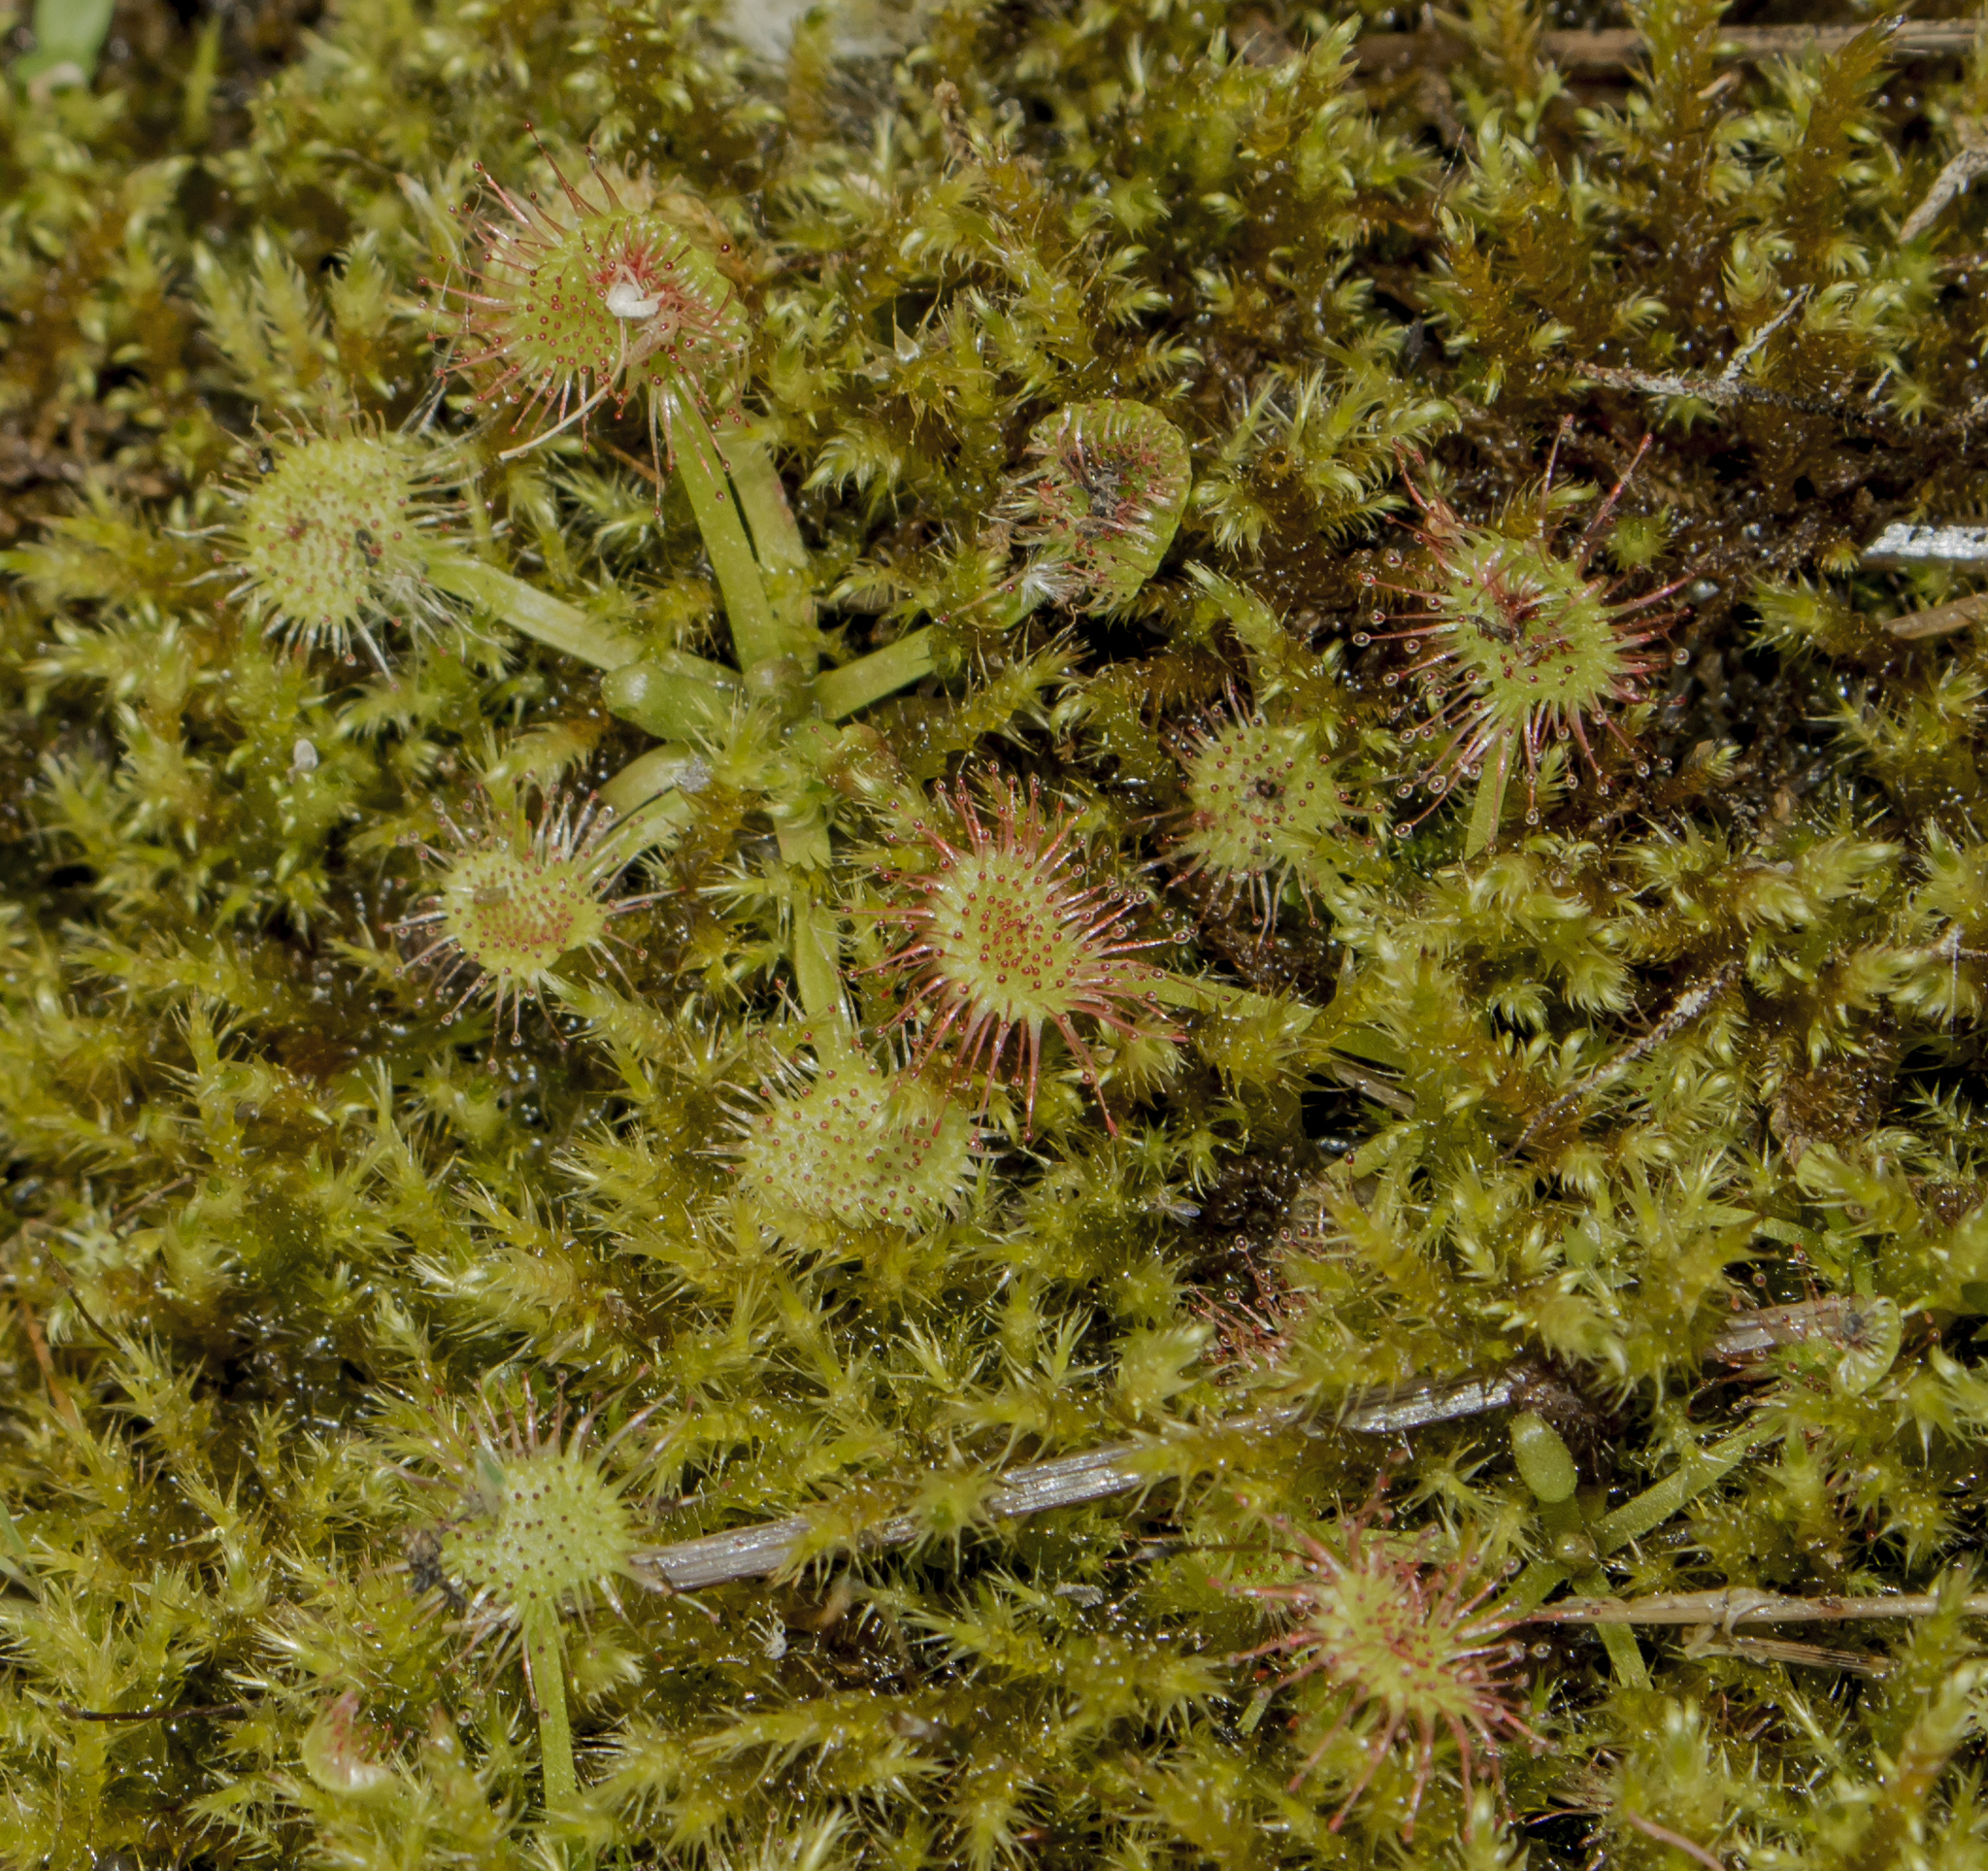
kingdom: Plantae
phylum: Tracheophyta
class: Magnoliopsida
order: Caryophyllales
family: Droseraceae
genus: Drosera
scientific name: Drosera rotundifolia
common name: Round-leaved sundew
